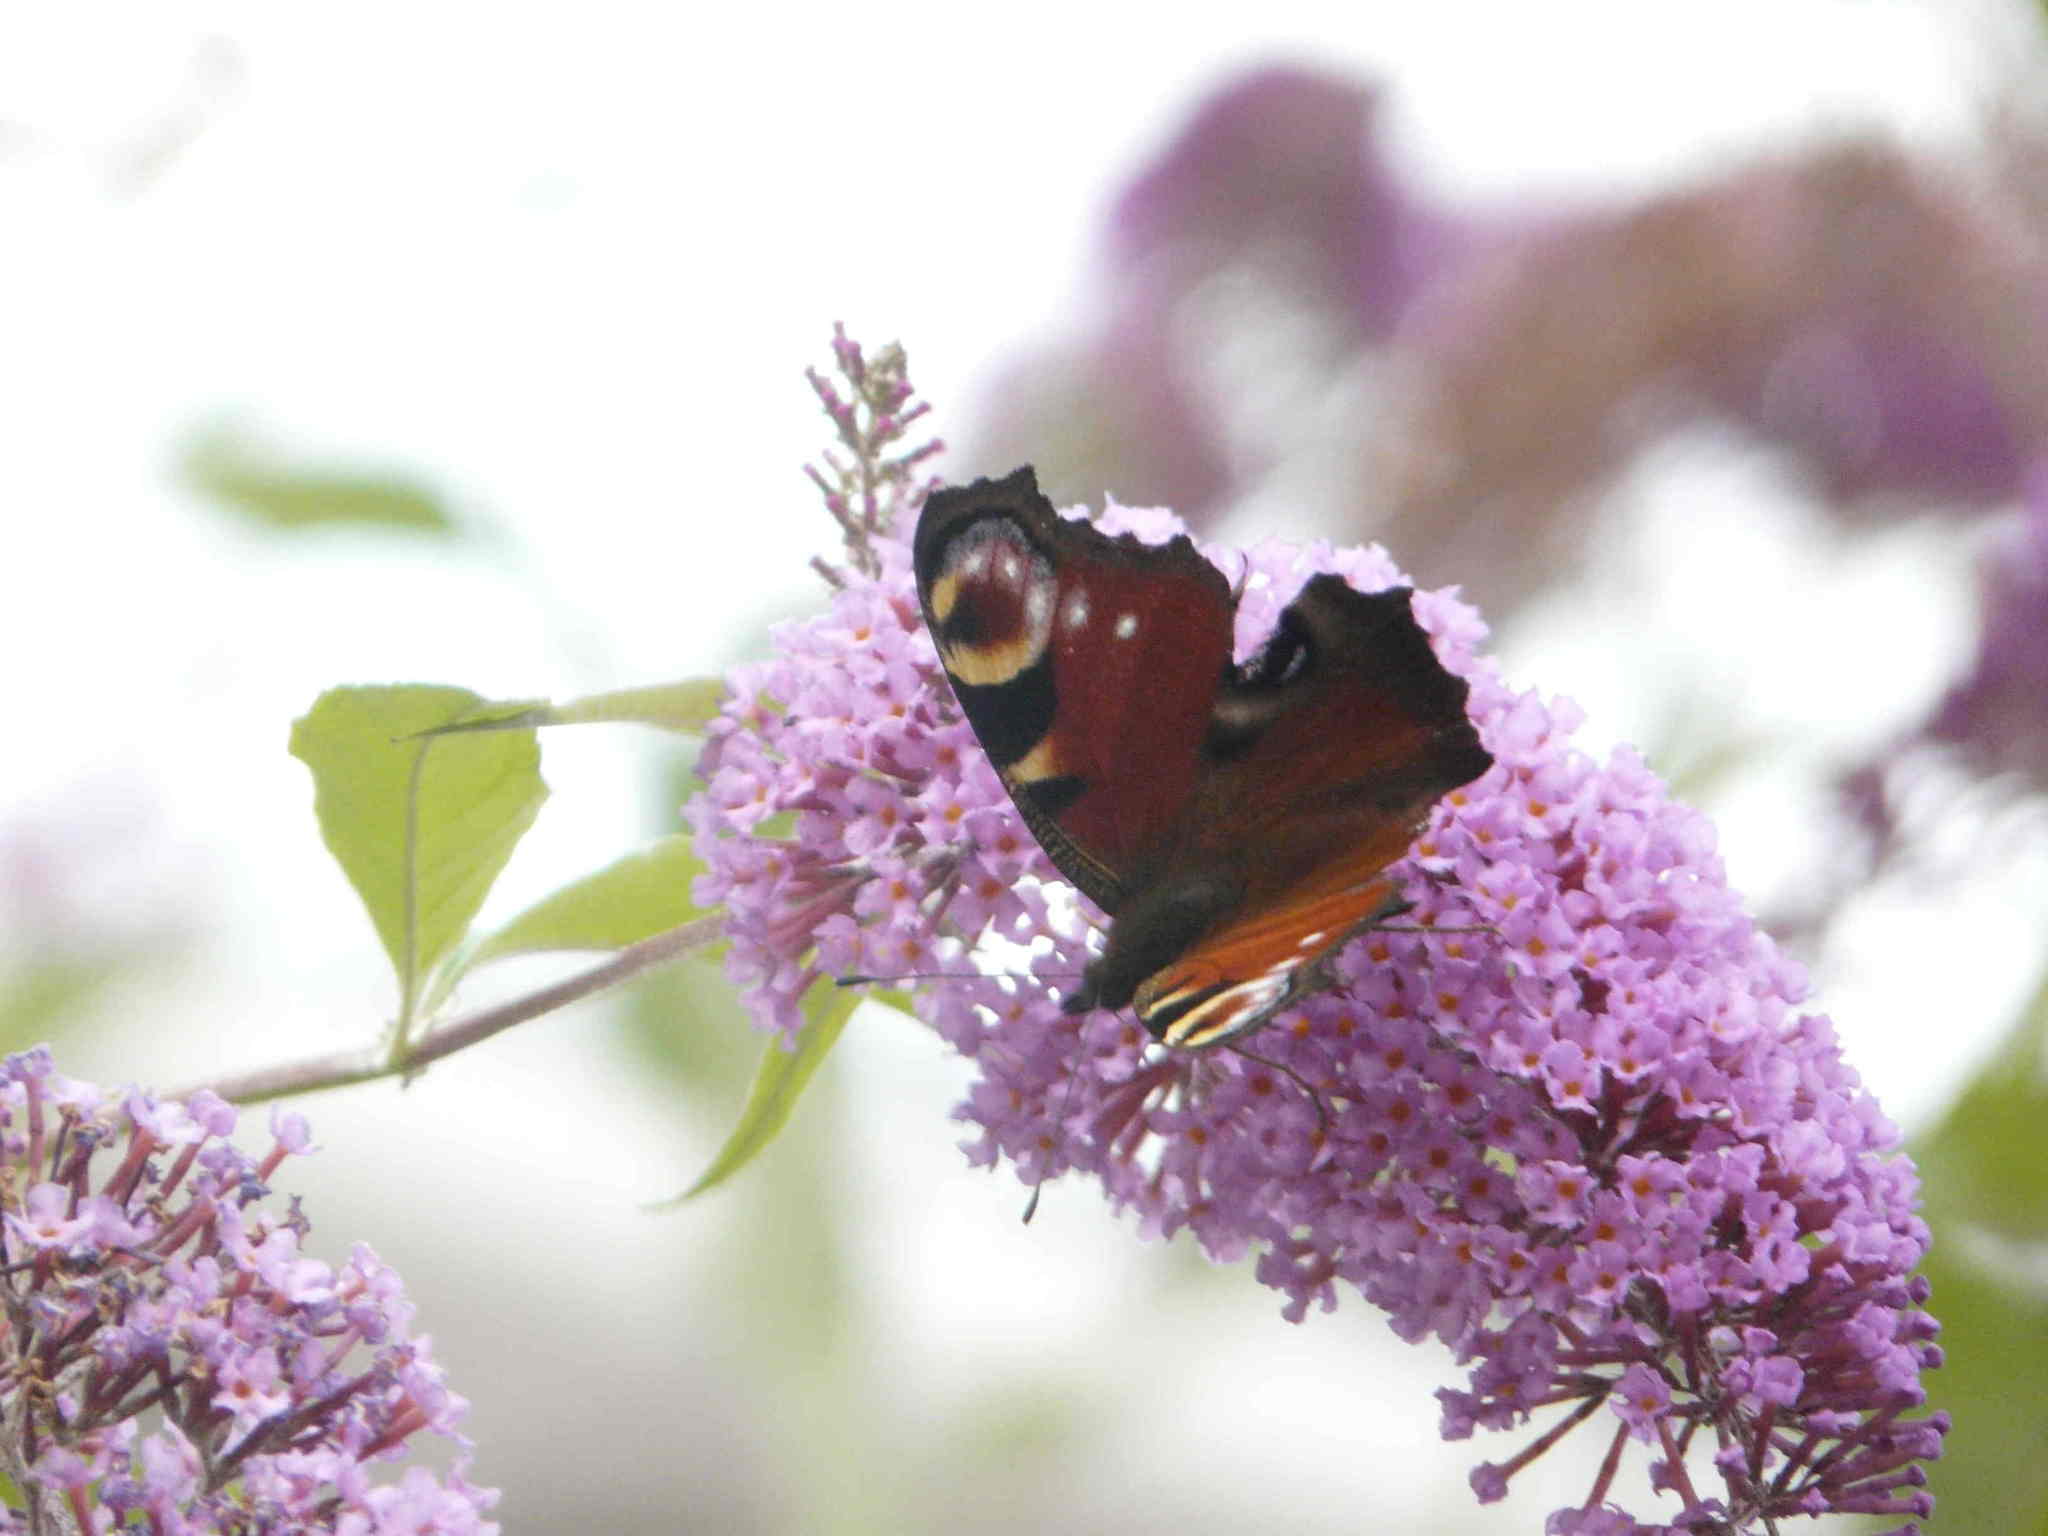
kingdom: Animalia
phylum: Arthropoda
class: Insecta
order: Lepidoptera
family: Nymphalidae
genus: Aglais
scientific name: Aglais io
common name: Peacock
